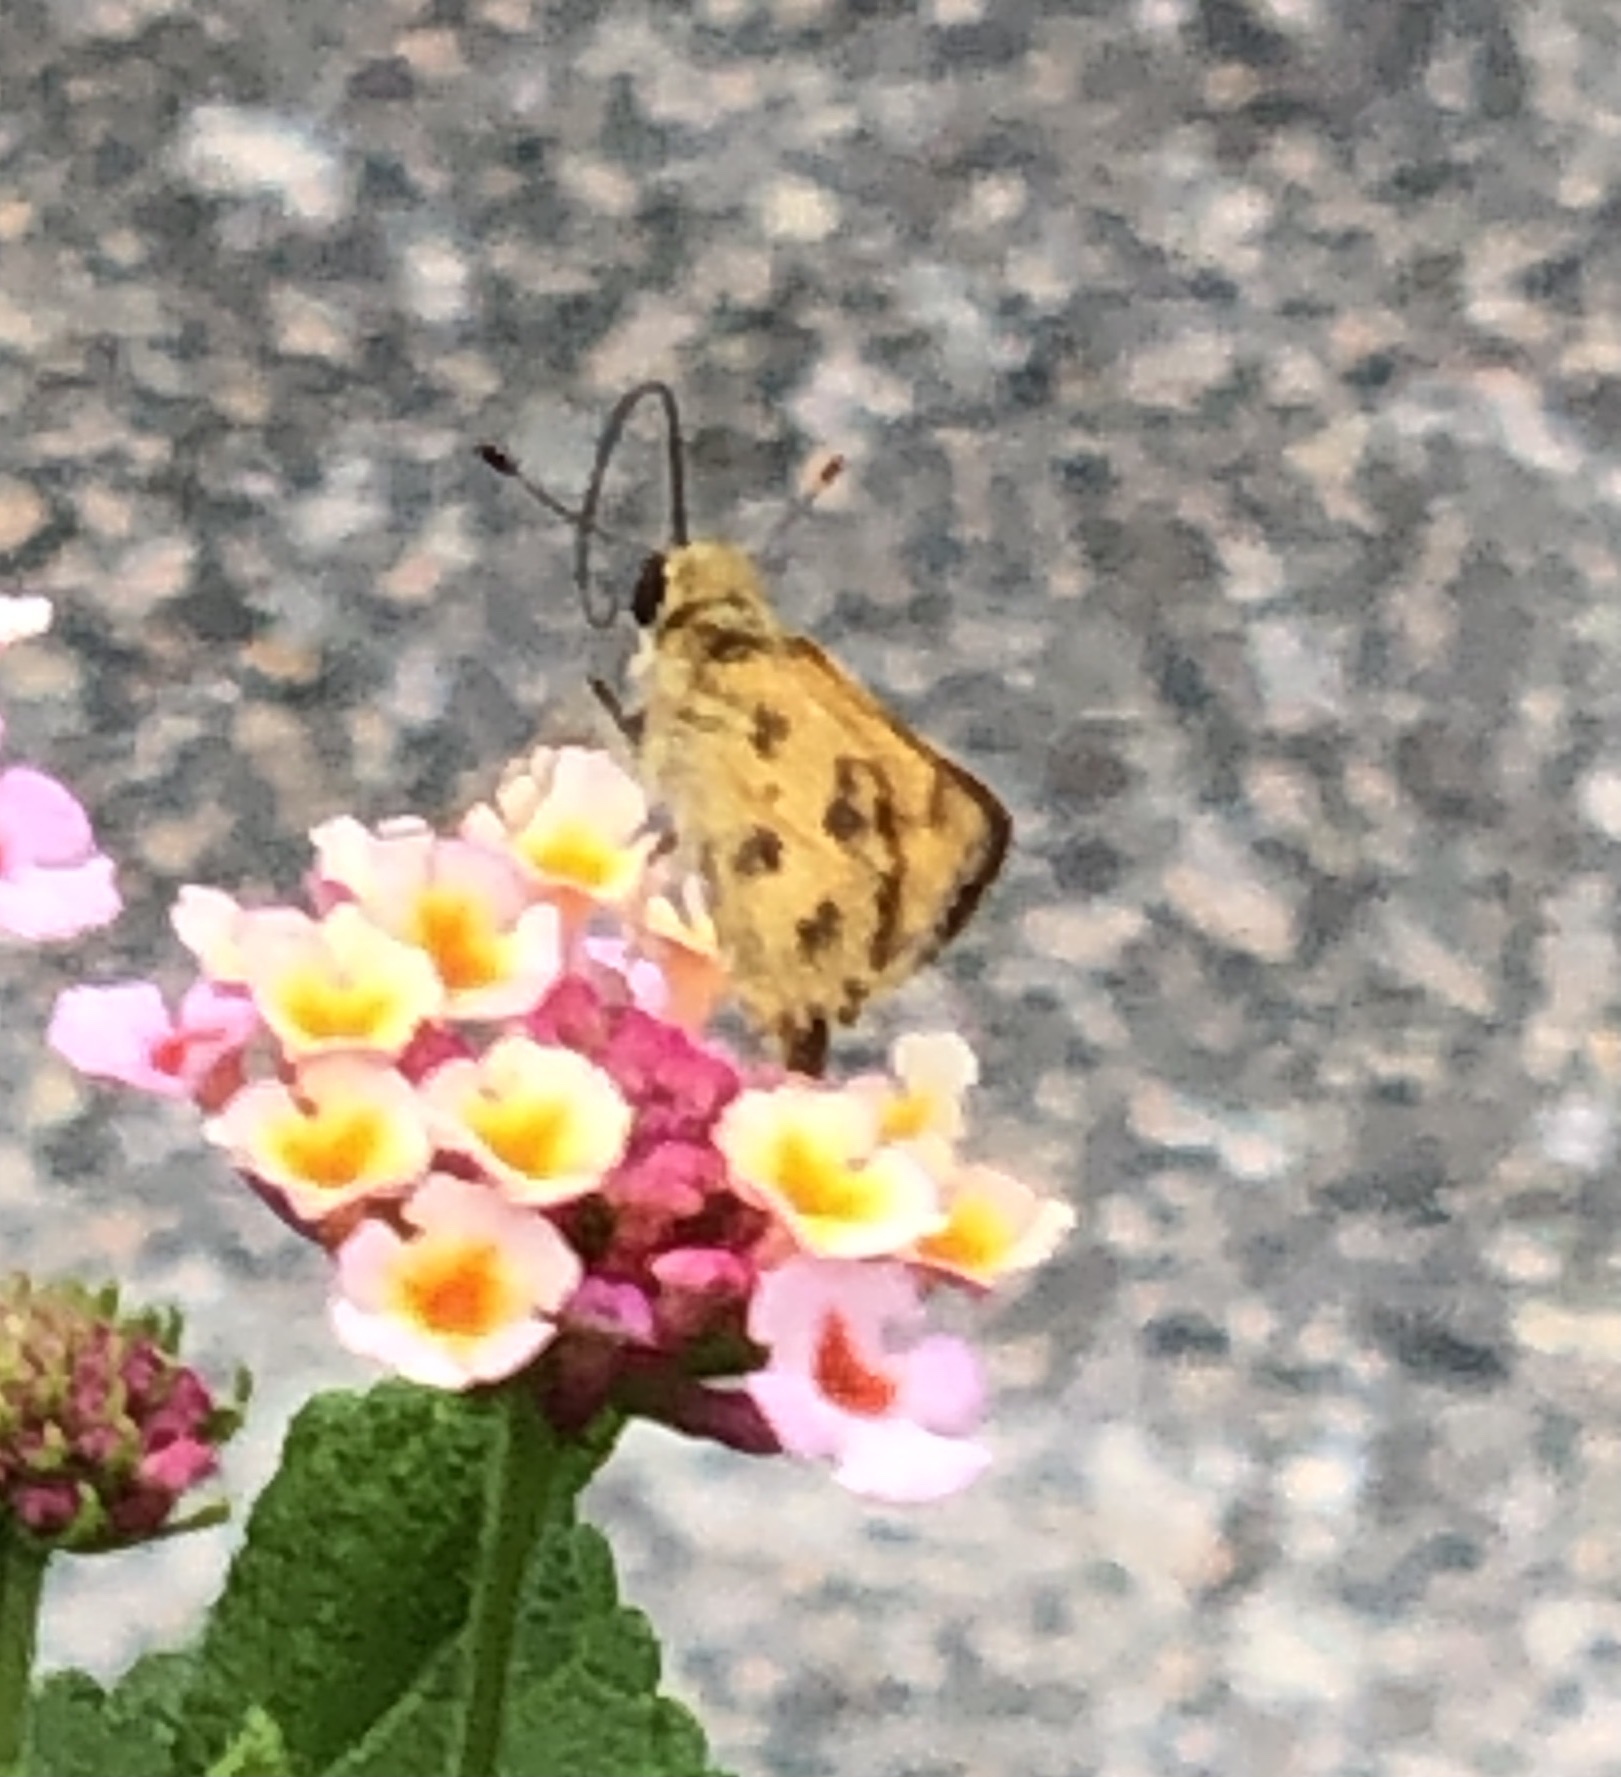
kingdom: Animalia
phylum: Arthropoda
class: Insecta
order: Lepidoptera
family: Hesperiidae
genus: Polites
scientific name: Polites vibex
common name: Whirlabout
